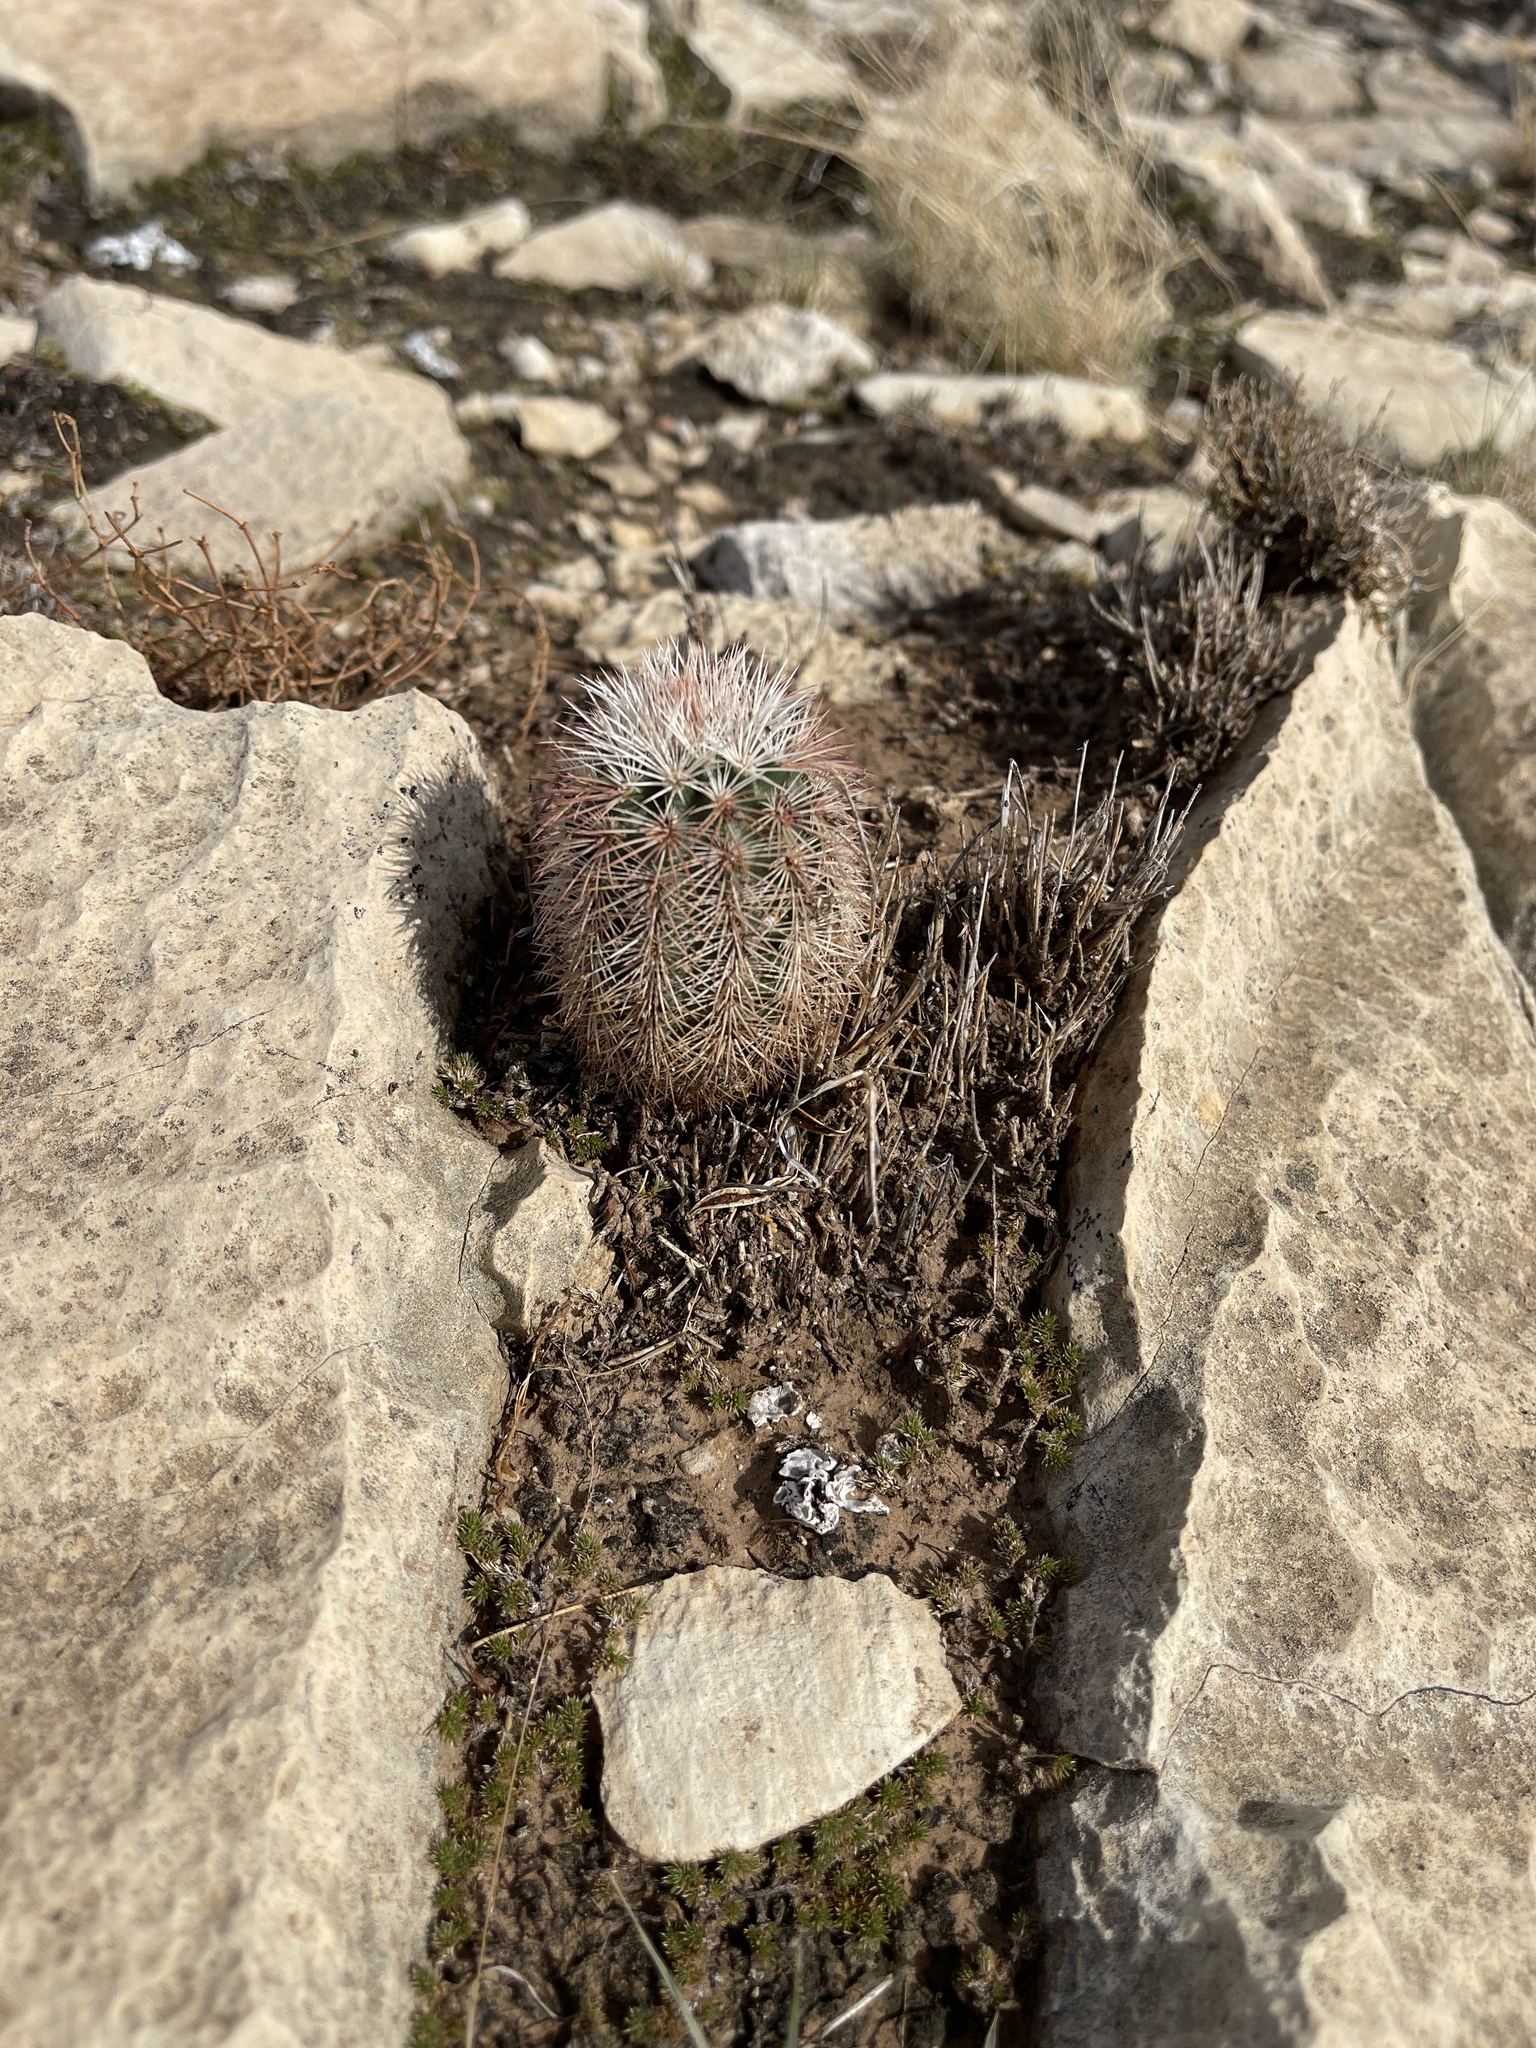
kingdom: Plantae
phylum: Tracheophyta
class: Magnoliopsida
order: Caryophyllales
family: Cactaceae
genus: Echinocereus
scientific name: Echinocereus dasyacanthus
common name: Spiny hedgehog cactus
